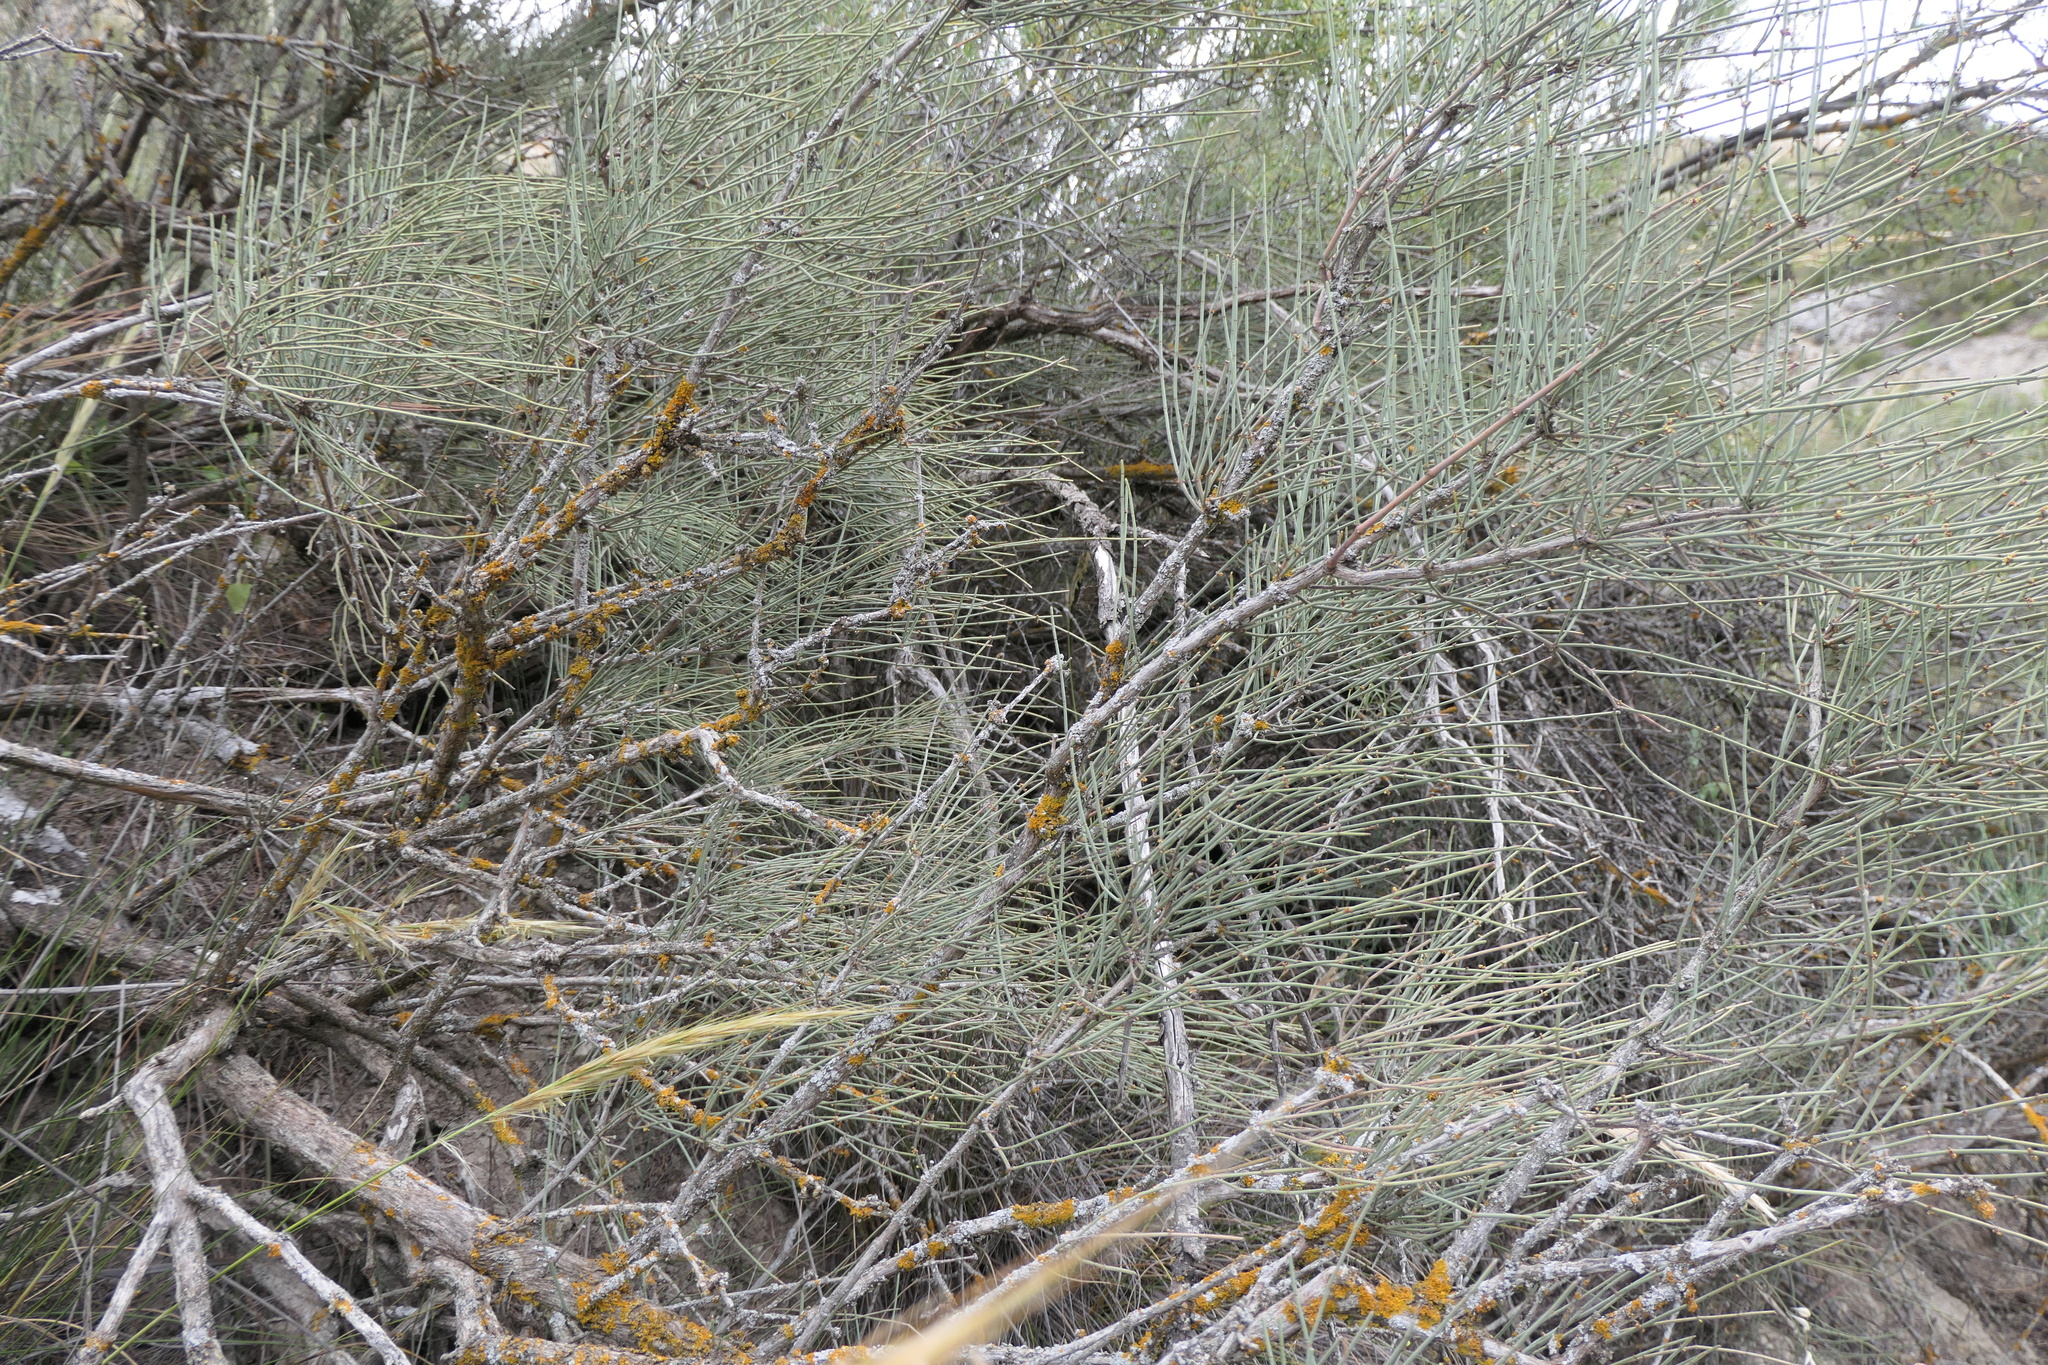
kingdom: Plantae
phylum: Tracheophyta
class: Gnetopsida
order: Ephedrales
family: Ephedraceae
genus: Ephedra
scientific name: Ephedra fragilis
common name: Joint pine
